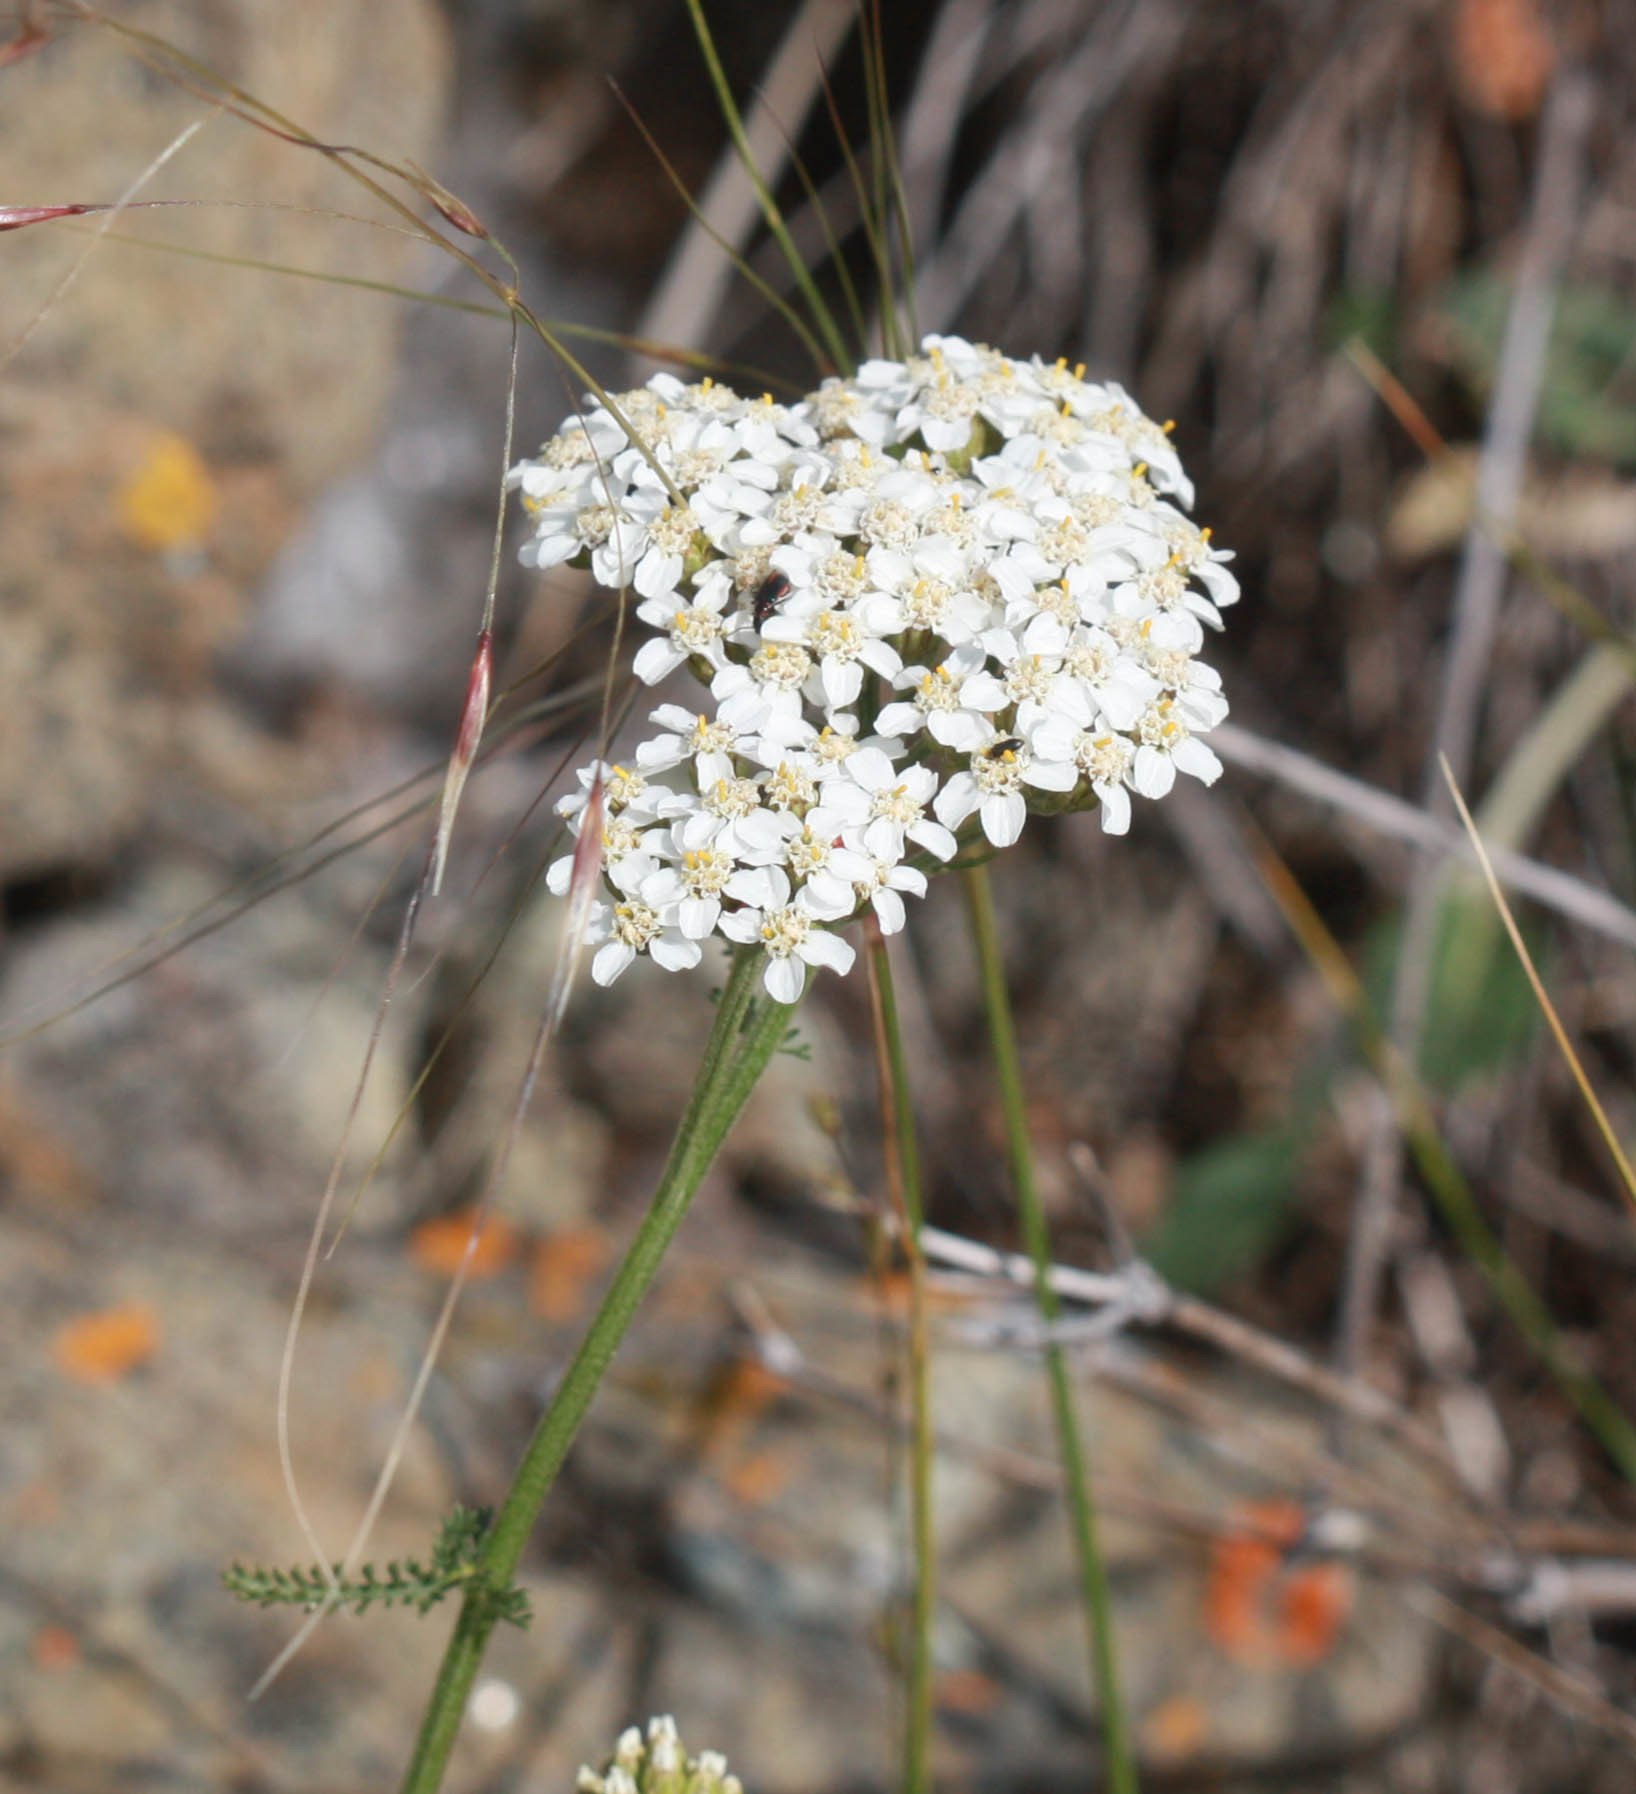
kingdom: Plantae
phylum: Tracheophyta
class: Magnoliopsida
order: Asterales
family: Asteraceae
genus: Achillea
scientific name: Achillea millefolium
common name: Yarrow
